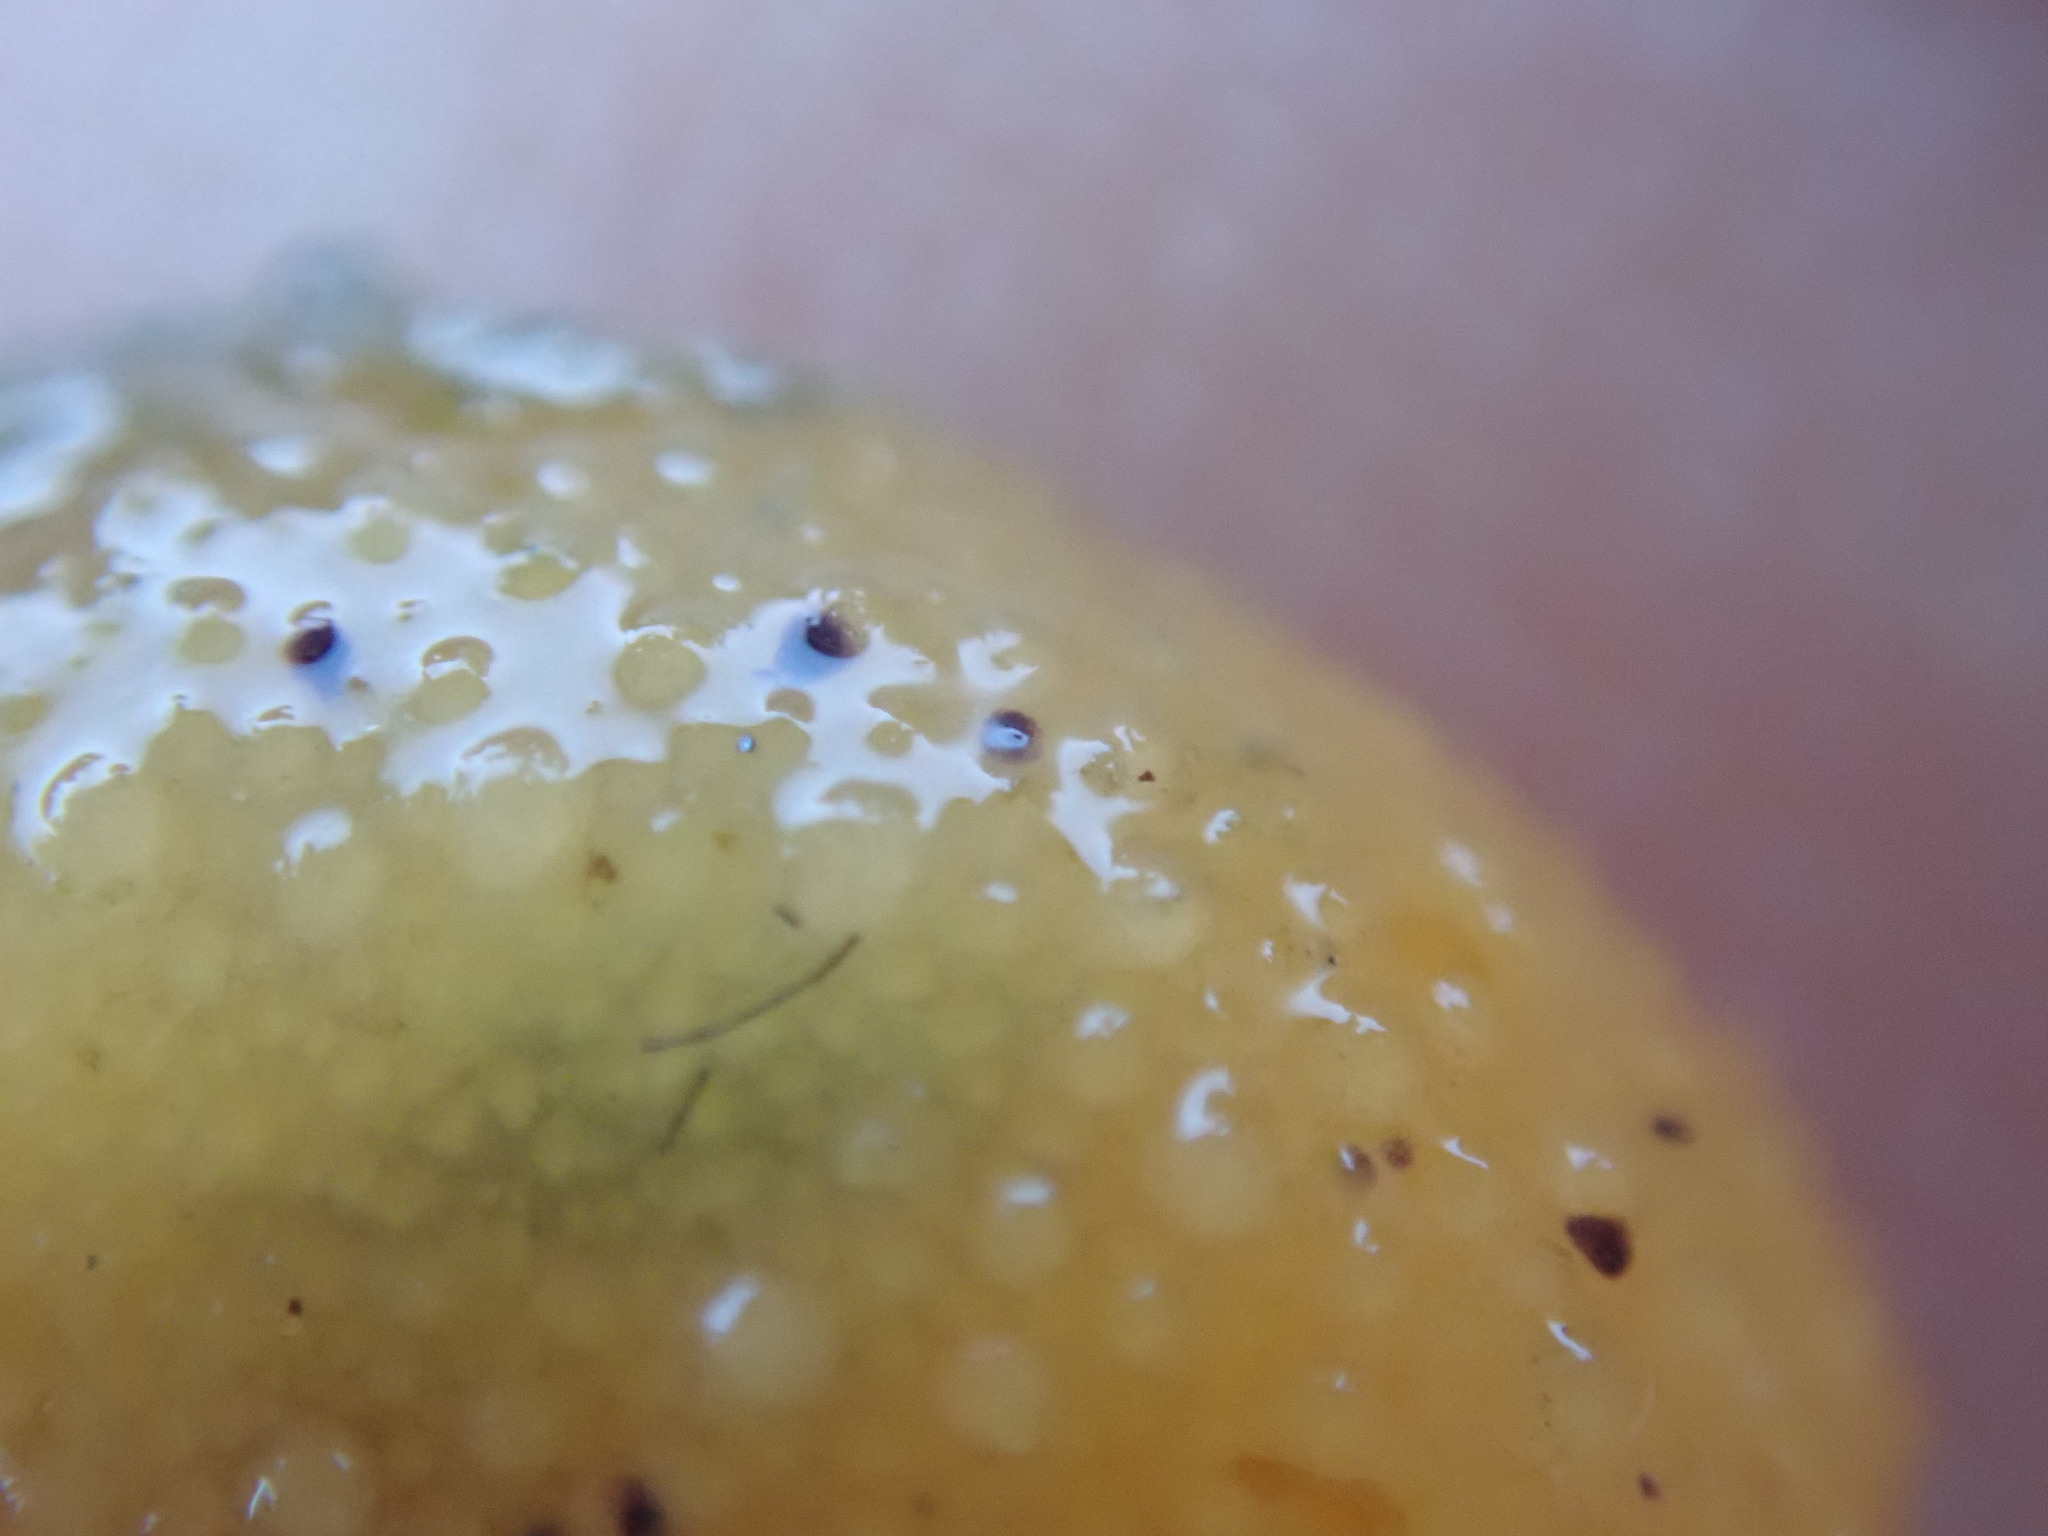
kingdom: Animalia
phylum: Mollusca
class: Gastropoda
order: Nudibranchia
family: Dorididae
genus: Doris
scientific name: Doris montereyensis
